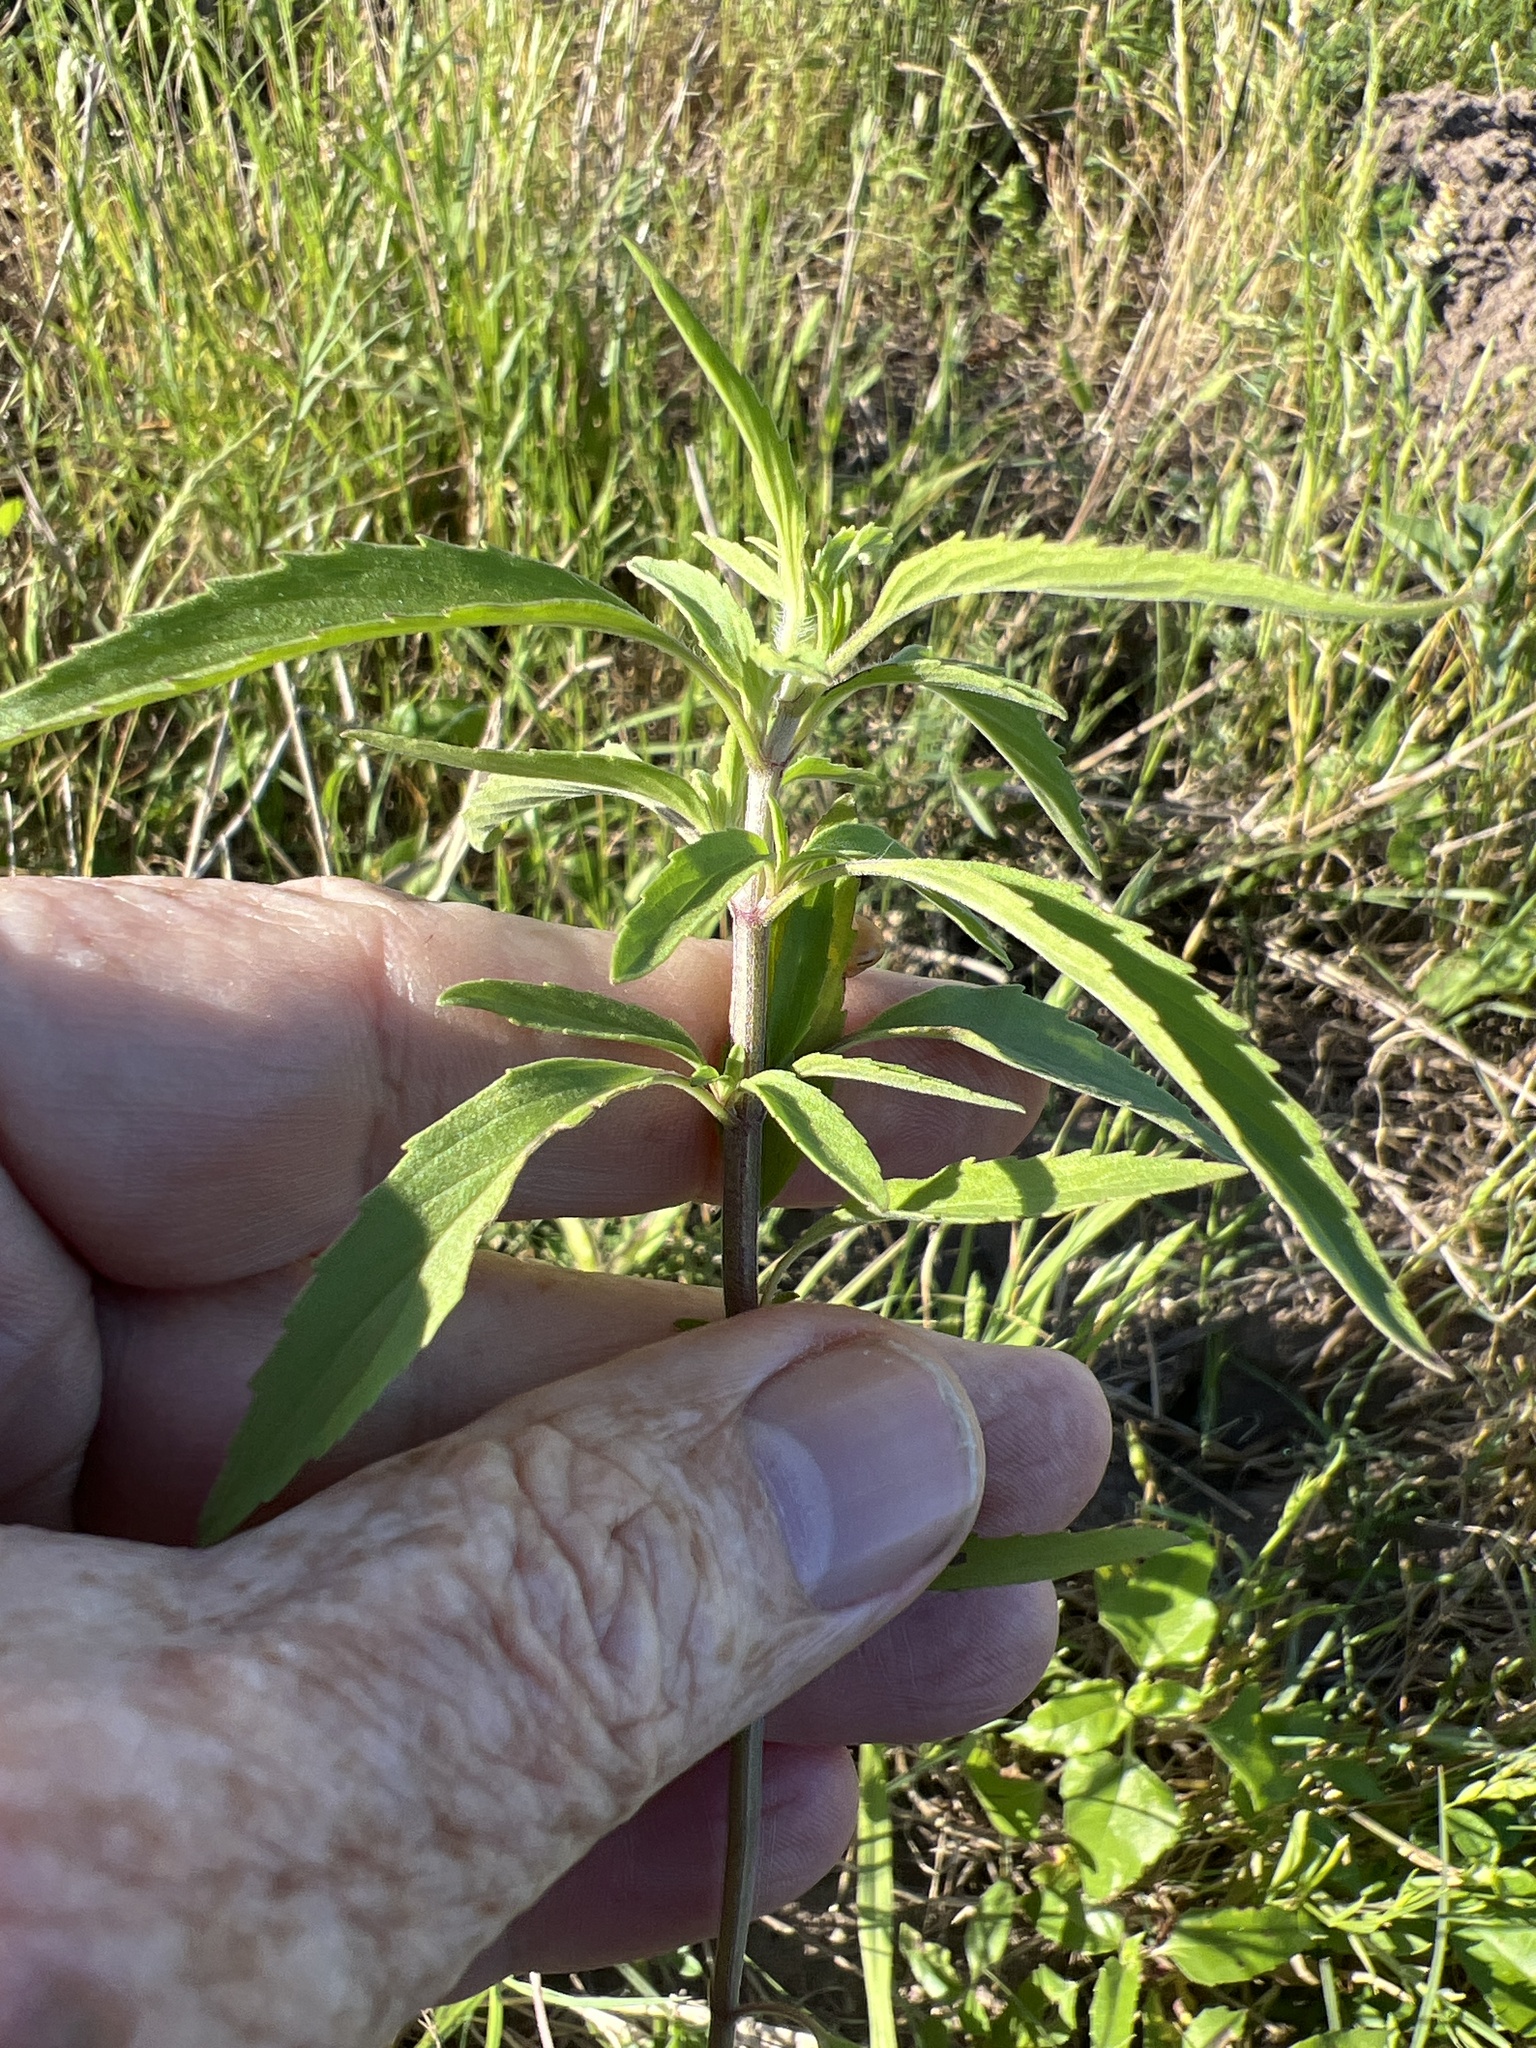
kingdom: Plantae
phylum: Tracheophyta
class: Magnoliopsida
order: Lamiales
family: Lamiaceae
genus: Monarda
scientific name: Monarda citriodora
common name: Lemon beebalm
